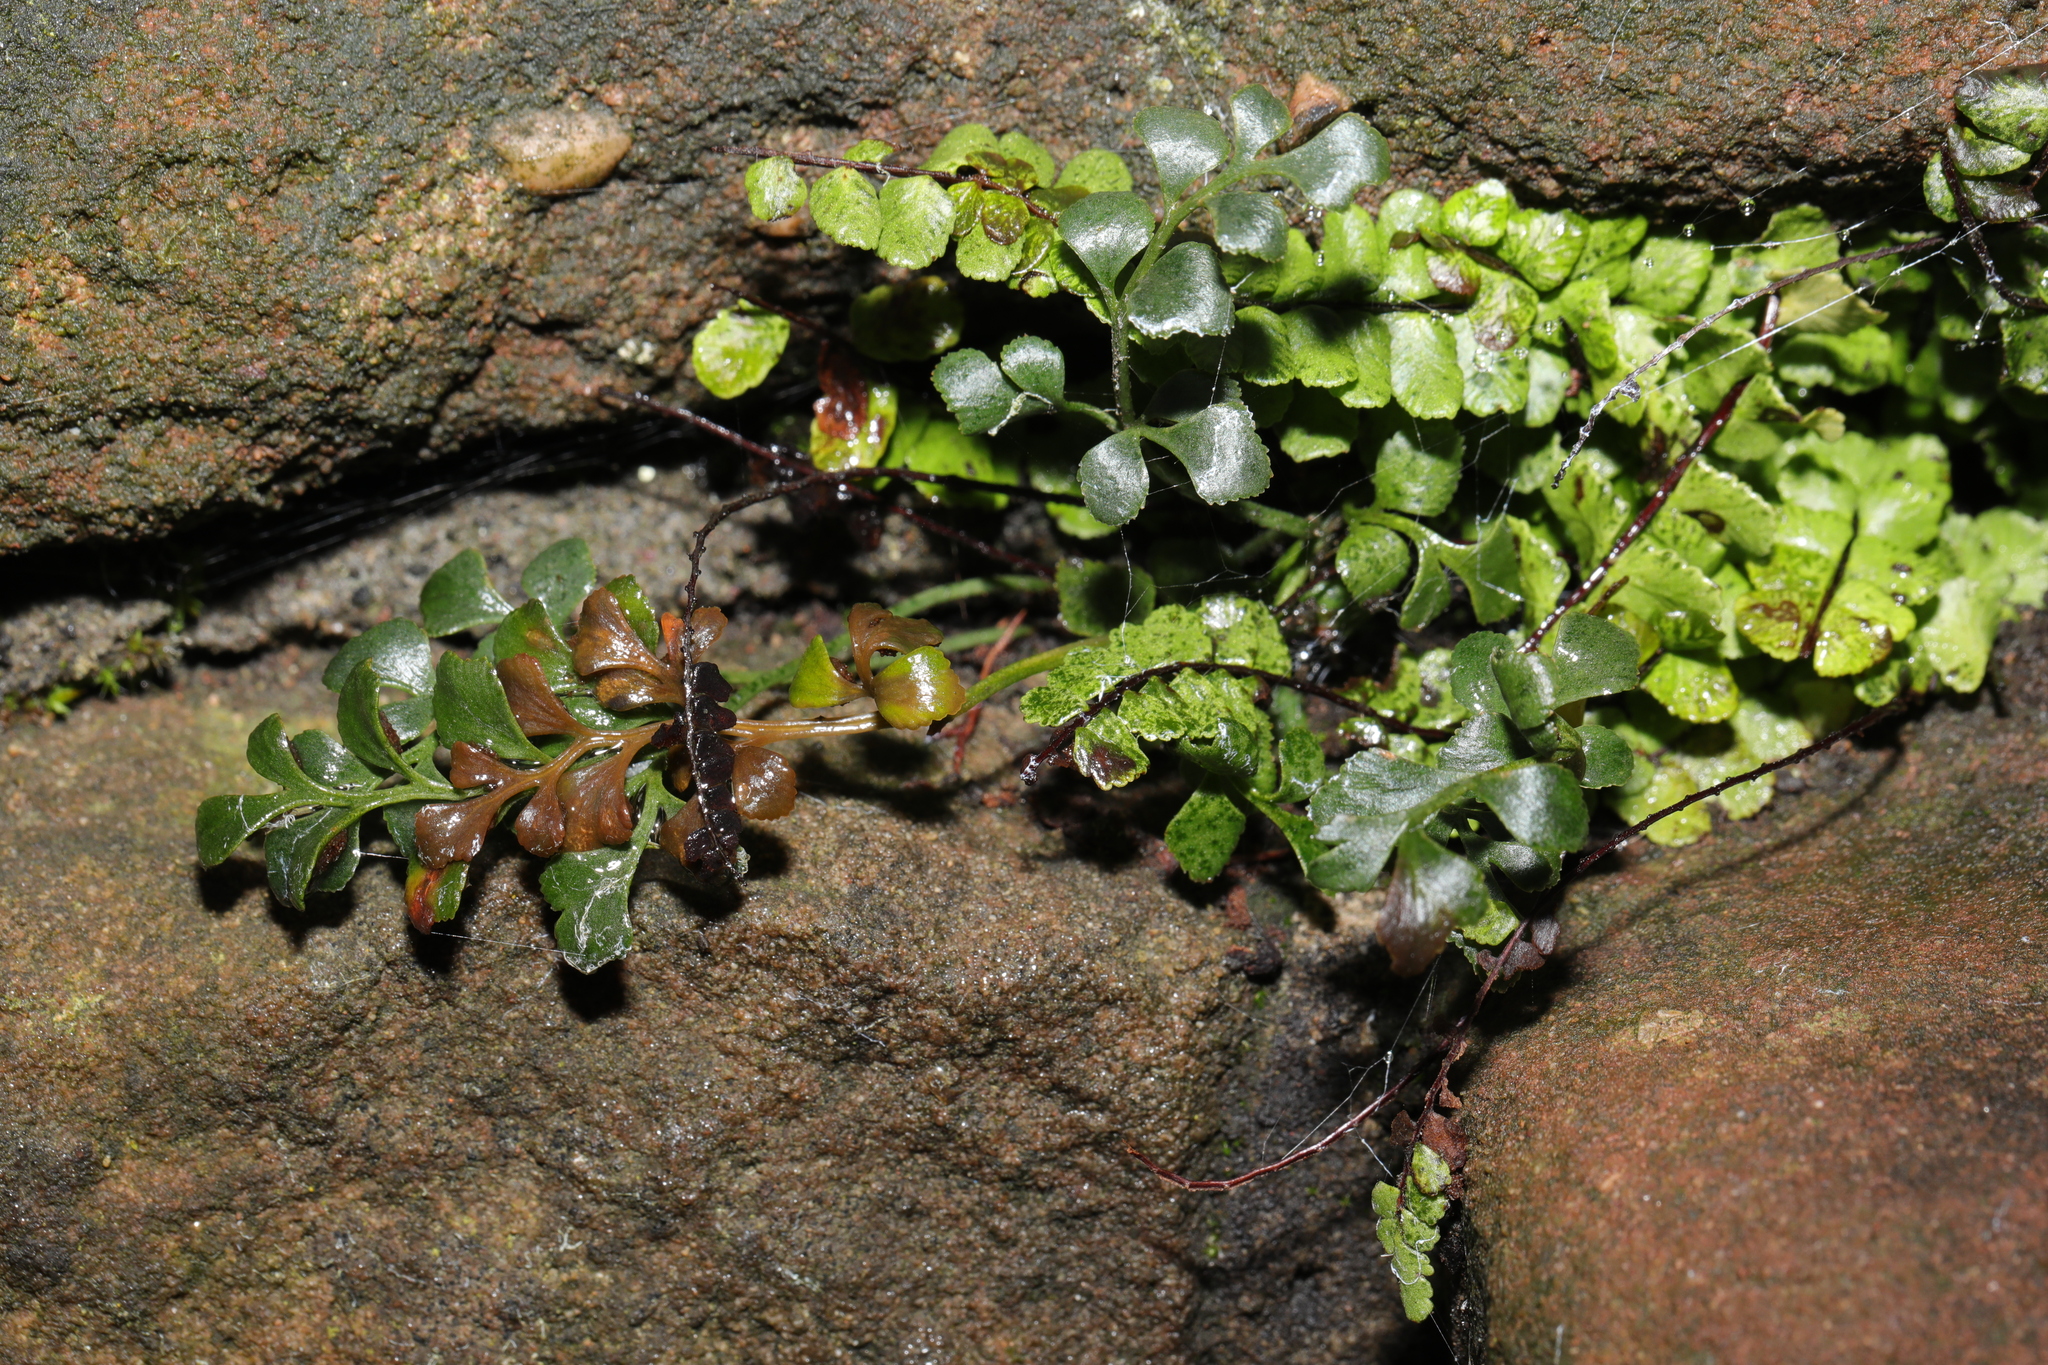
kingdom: Plantae
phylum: Tracheophyta
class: Polypodiopsida
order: Polypodiales
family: Aspleniaceae
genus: Asplenium
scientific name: Asplenium ruta-muraria
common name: Wall-rue
